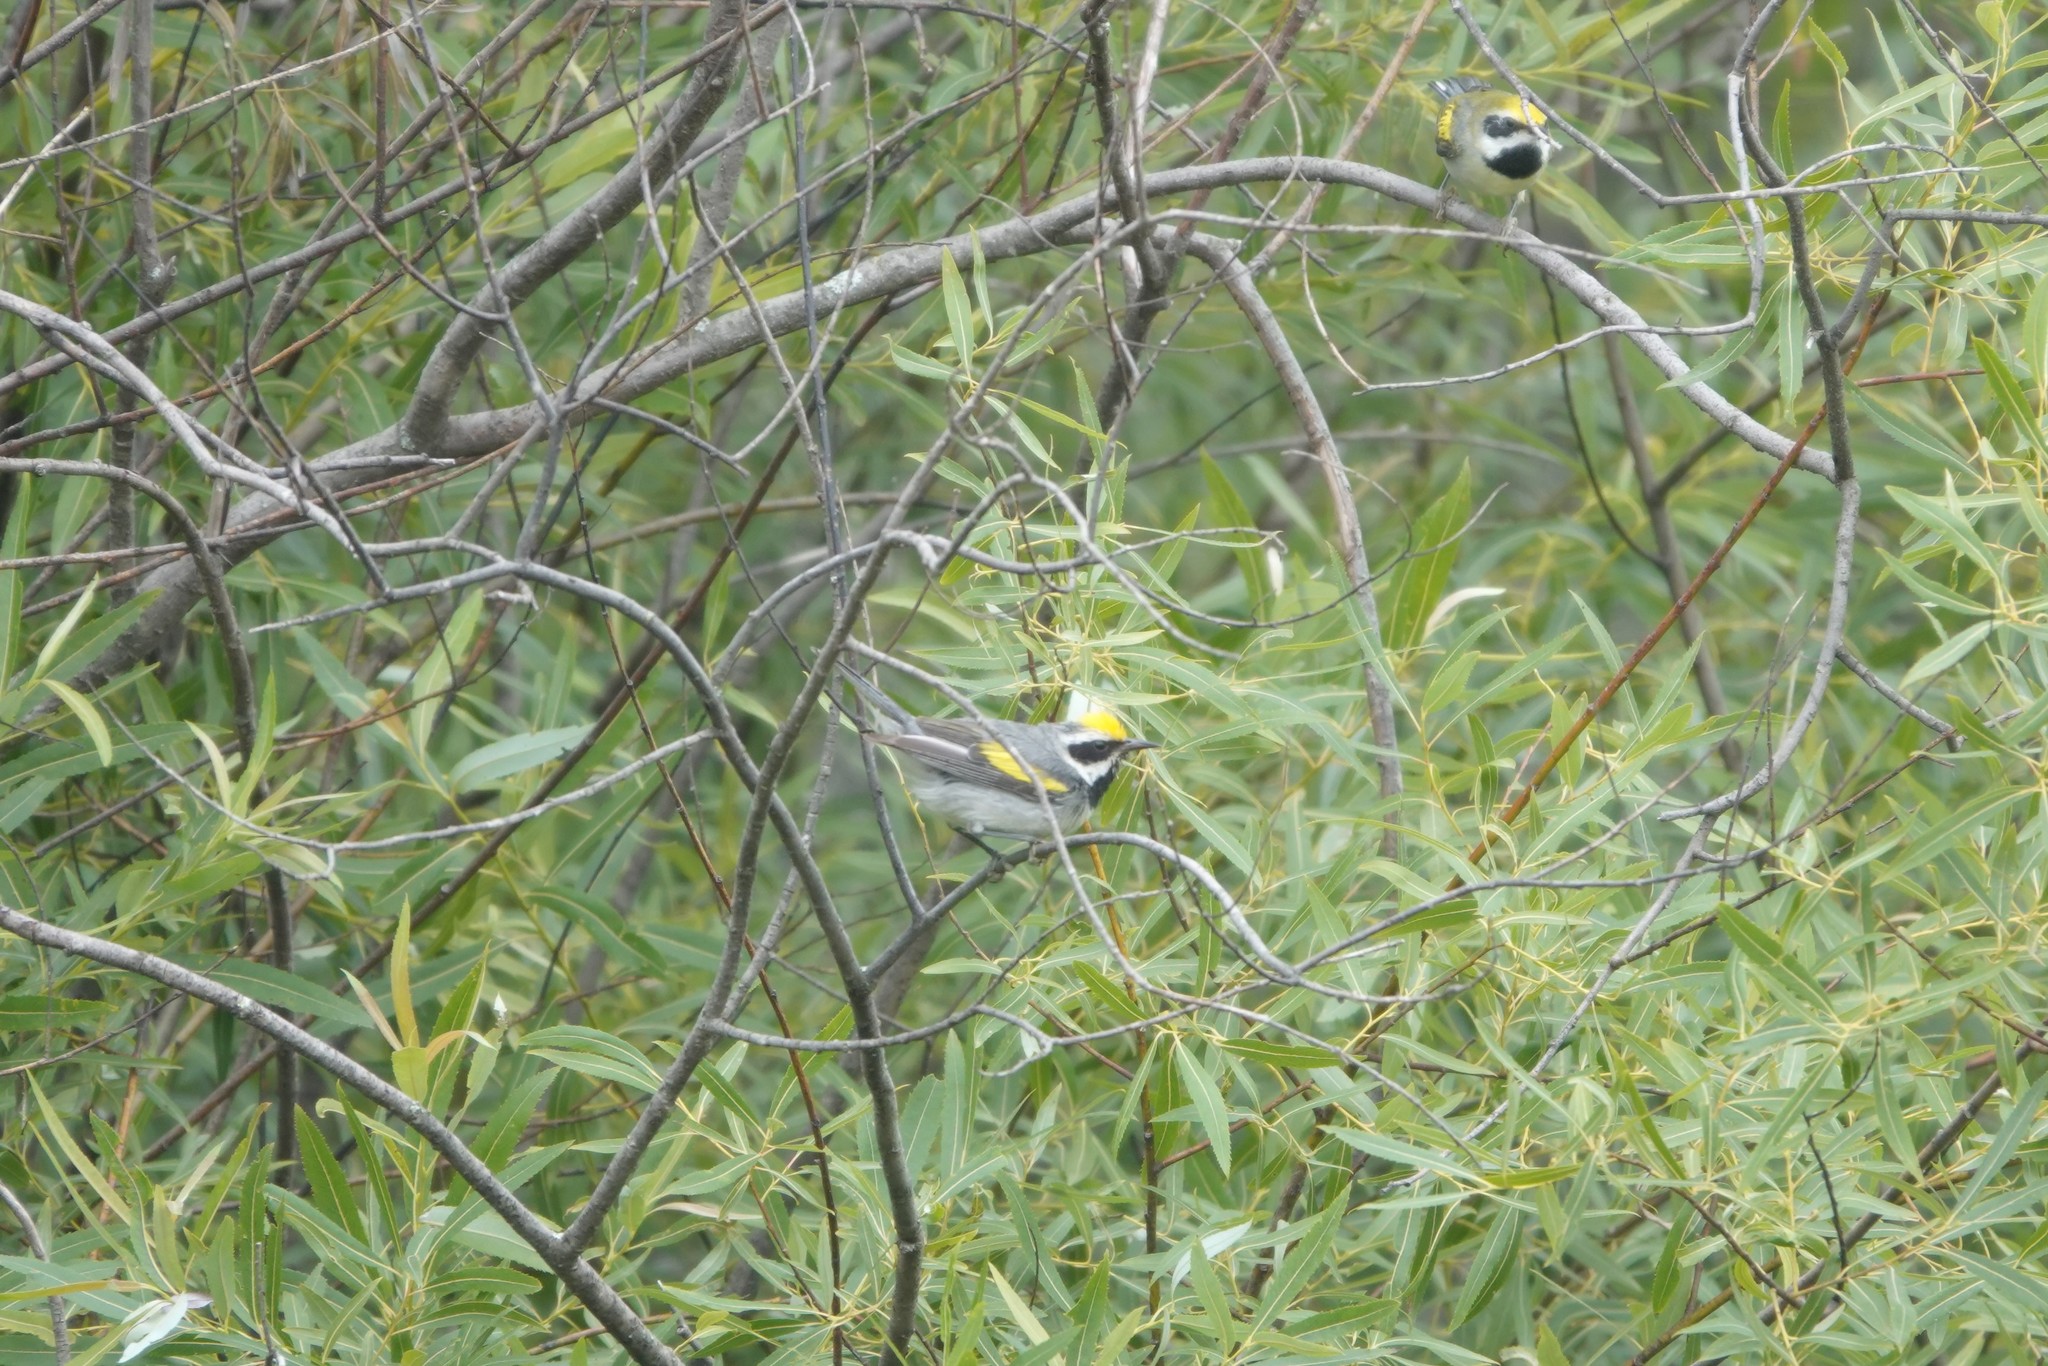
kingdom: Animalia
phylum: Chordata
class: Aves
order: Passeriformes
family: Parulidae
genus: Vermivora
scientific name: Vermivora chrysoptera
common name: Golden-winged warbler
